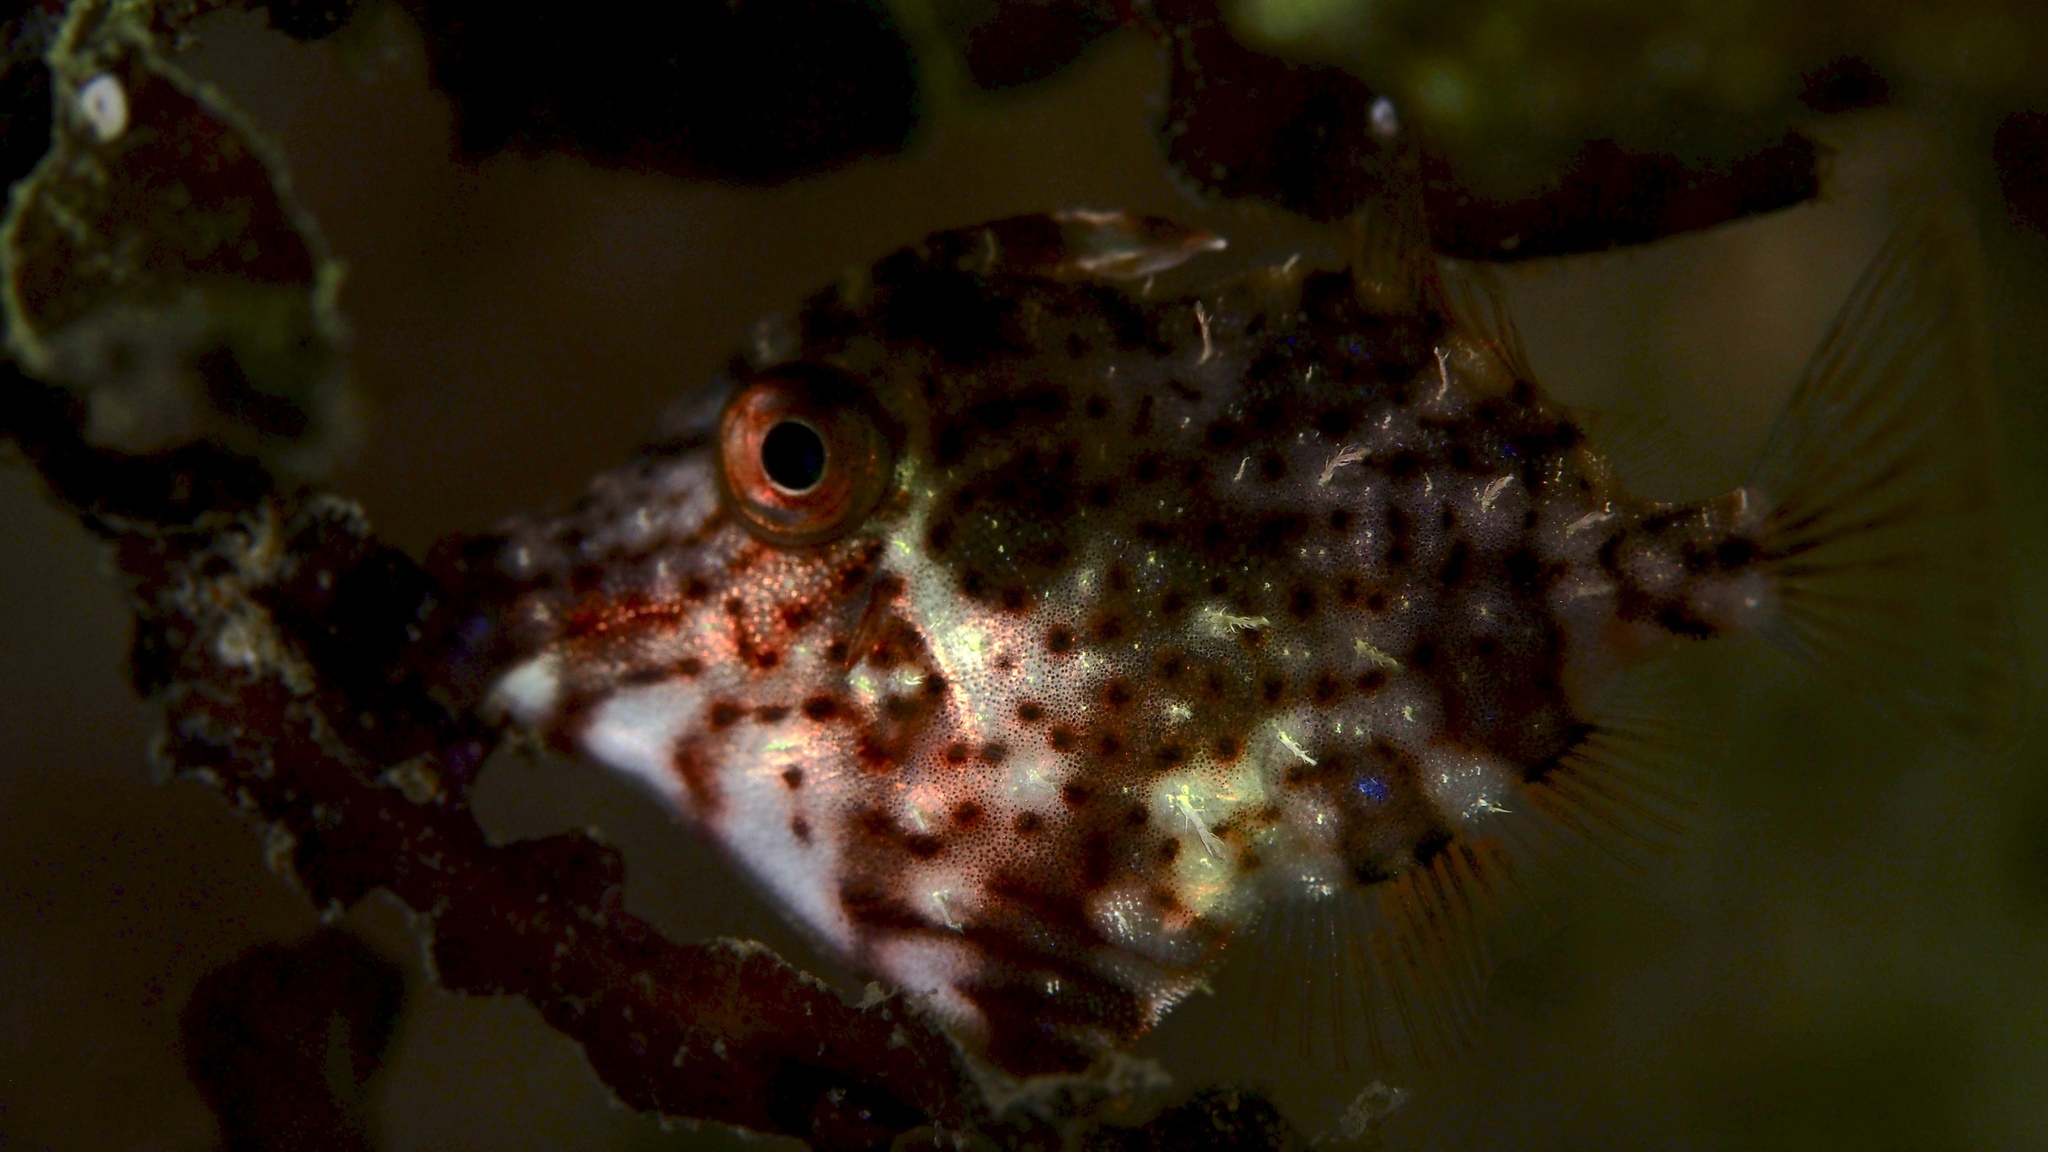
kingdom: Animalia
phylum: Chordata
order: Tetraodontiformes
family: Monacanthidae
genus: Scobinichthys
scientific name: Scobinichthys granulatus
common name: Rough leatherjacket
